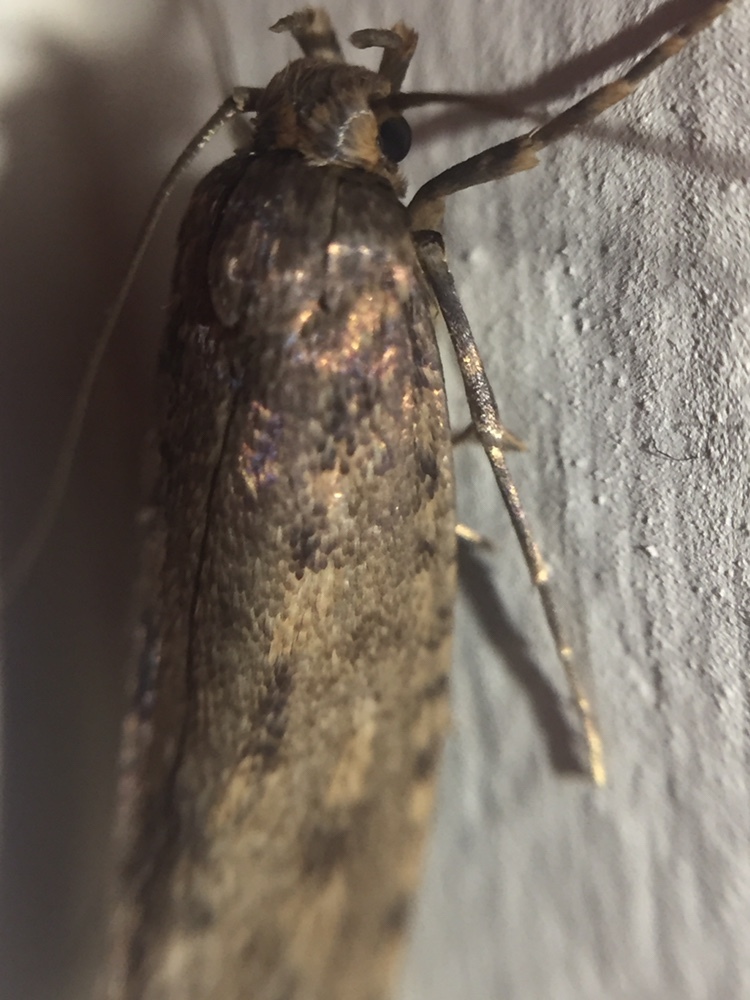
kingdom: Animalia
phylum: Arthropoda
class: Insecta
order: Lepidoptera
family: Tineidae
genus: Lindera
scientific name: Lindera tessellatella
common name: Moth
